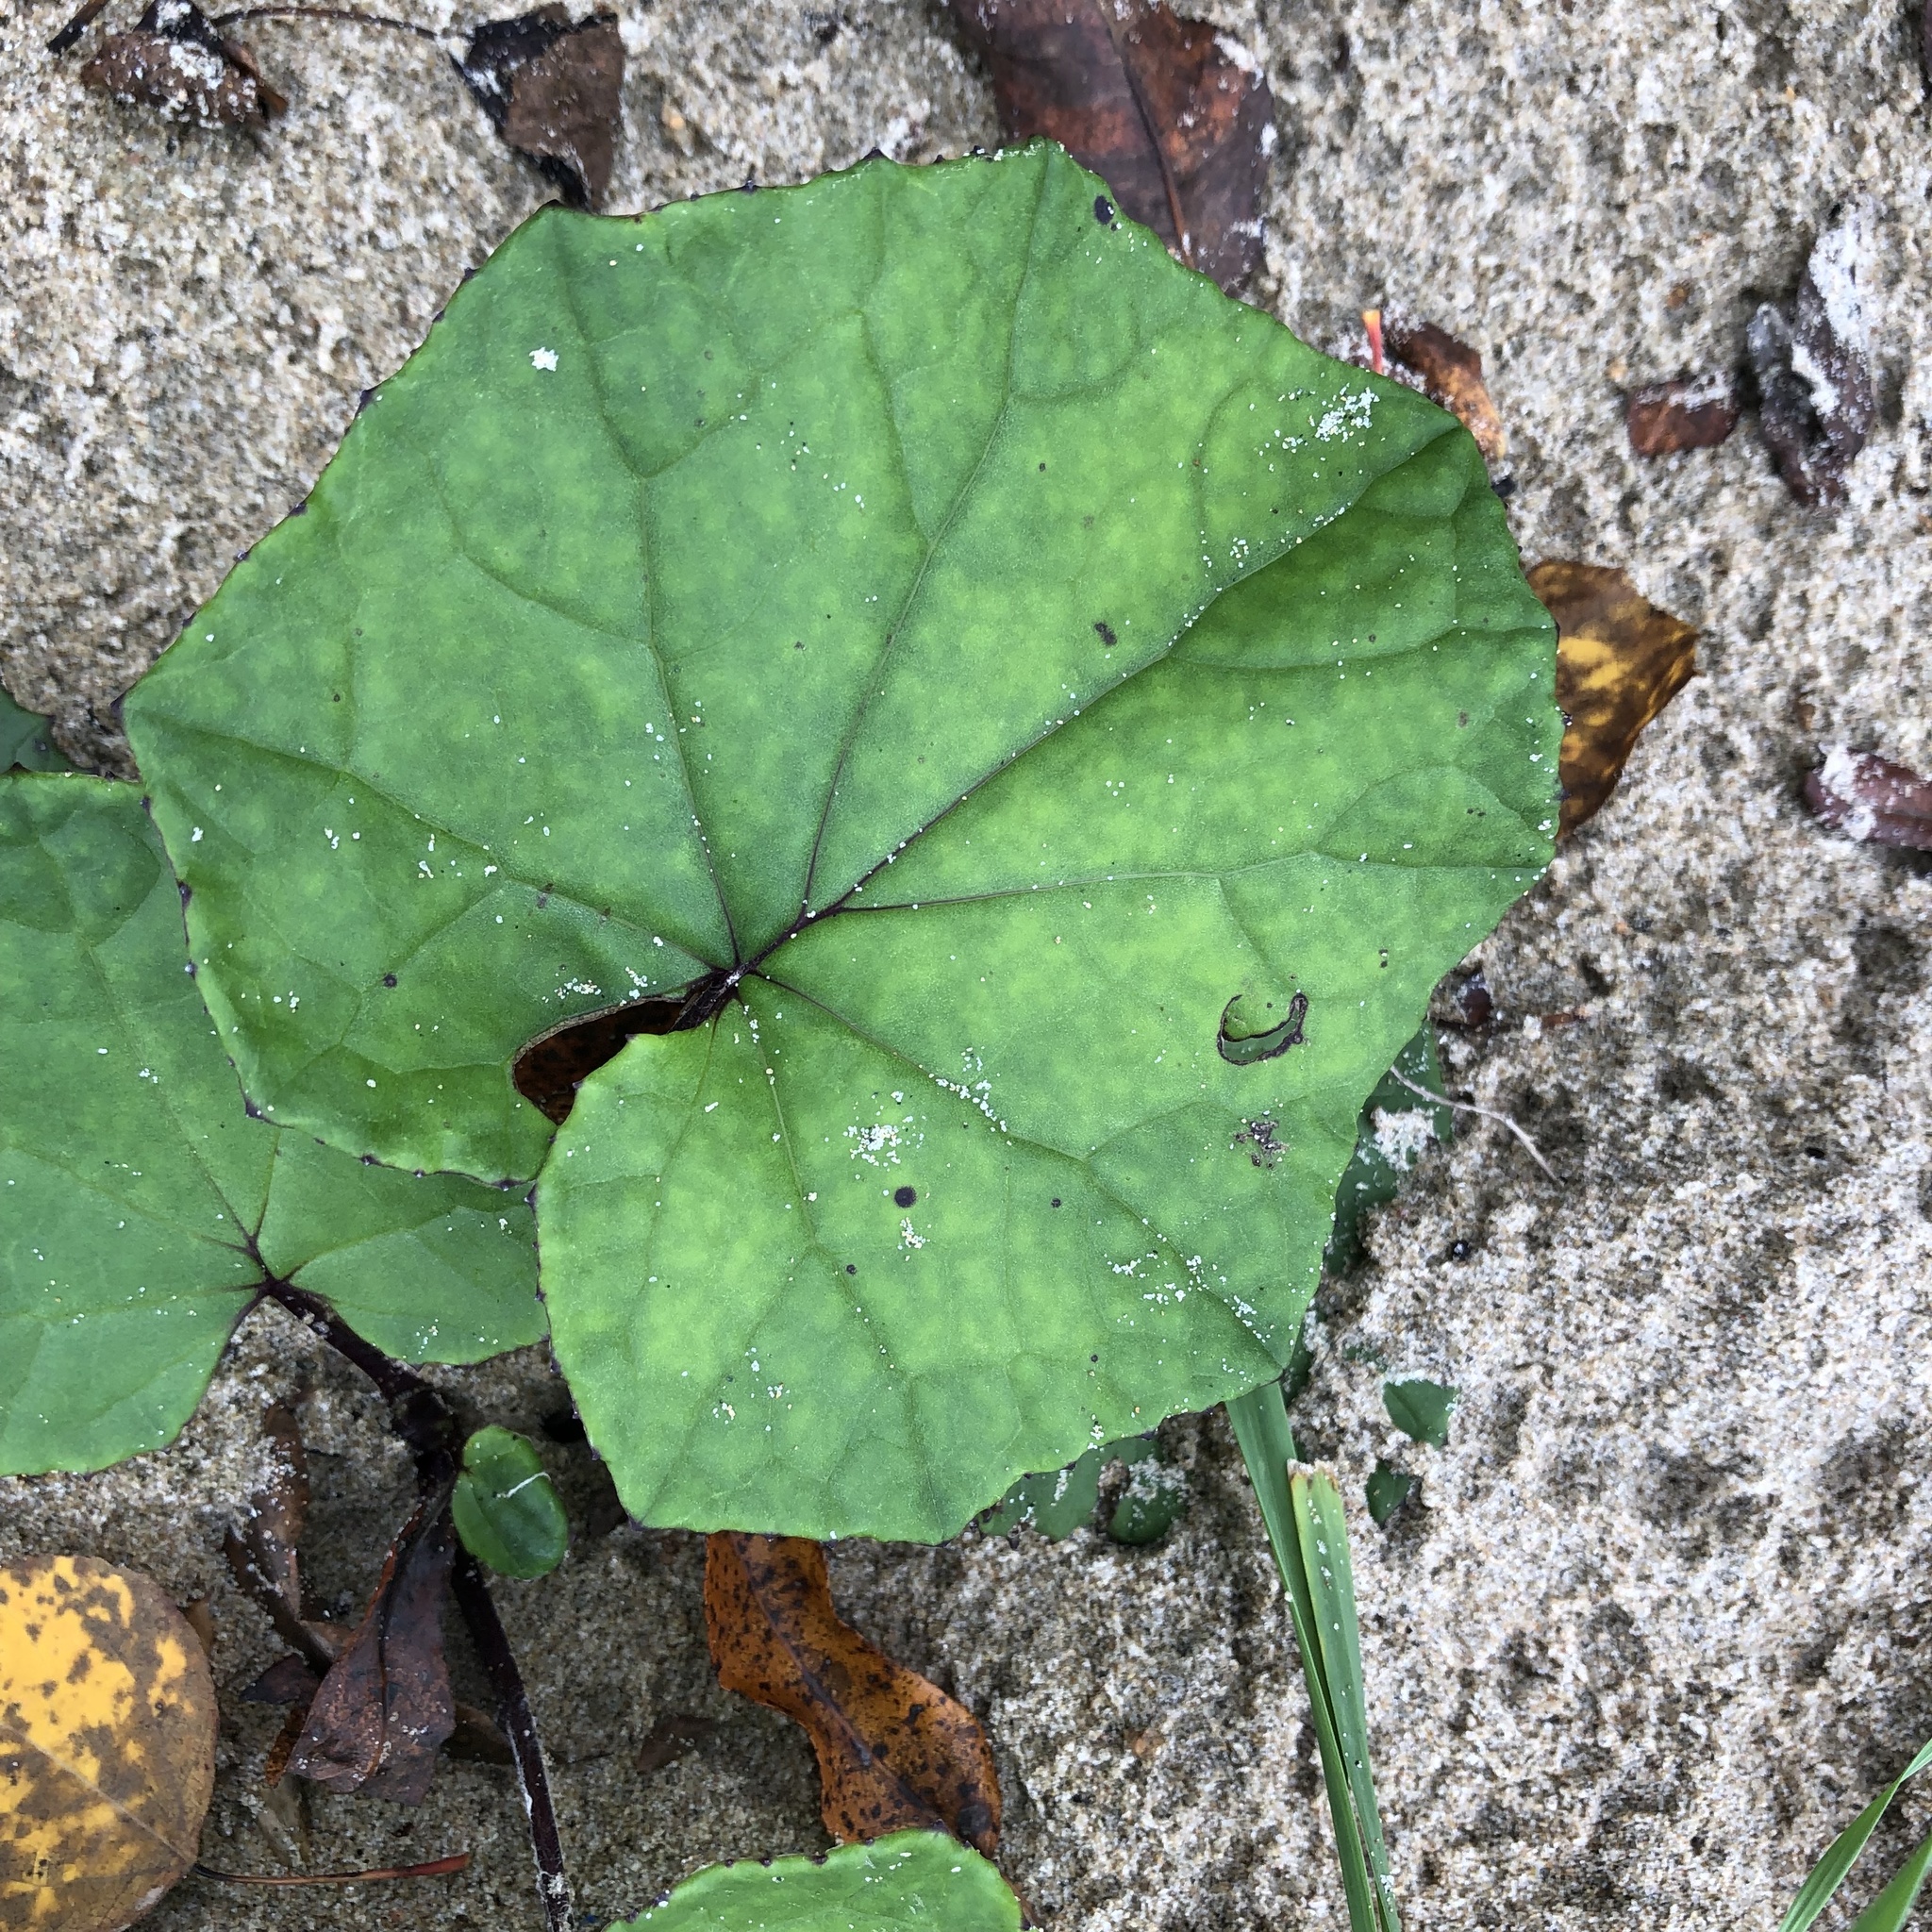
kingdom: Plantae
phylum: Tracheophyta
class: Magnoliopsida
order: Asterales
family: Asteraceae
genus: Tussilago
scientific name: Tussilago farfara
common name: Coltsfoot
